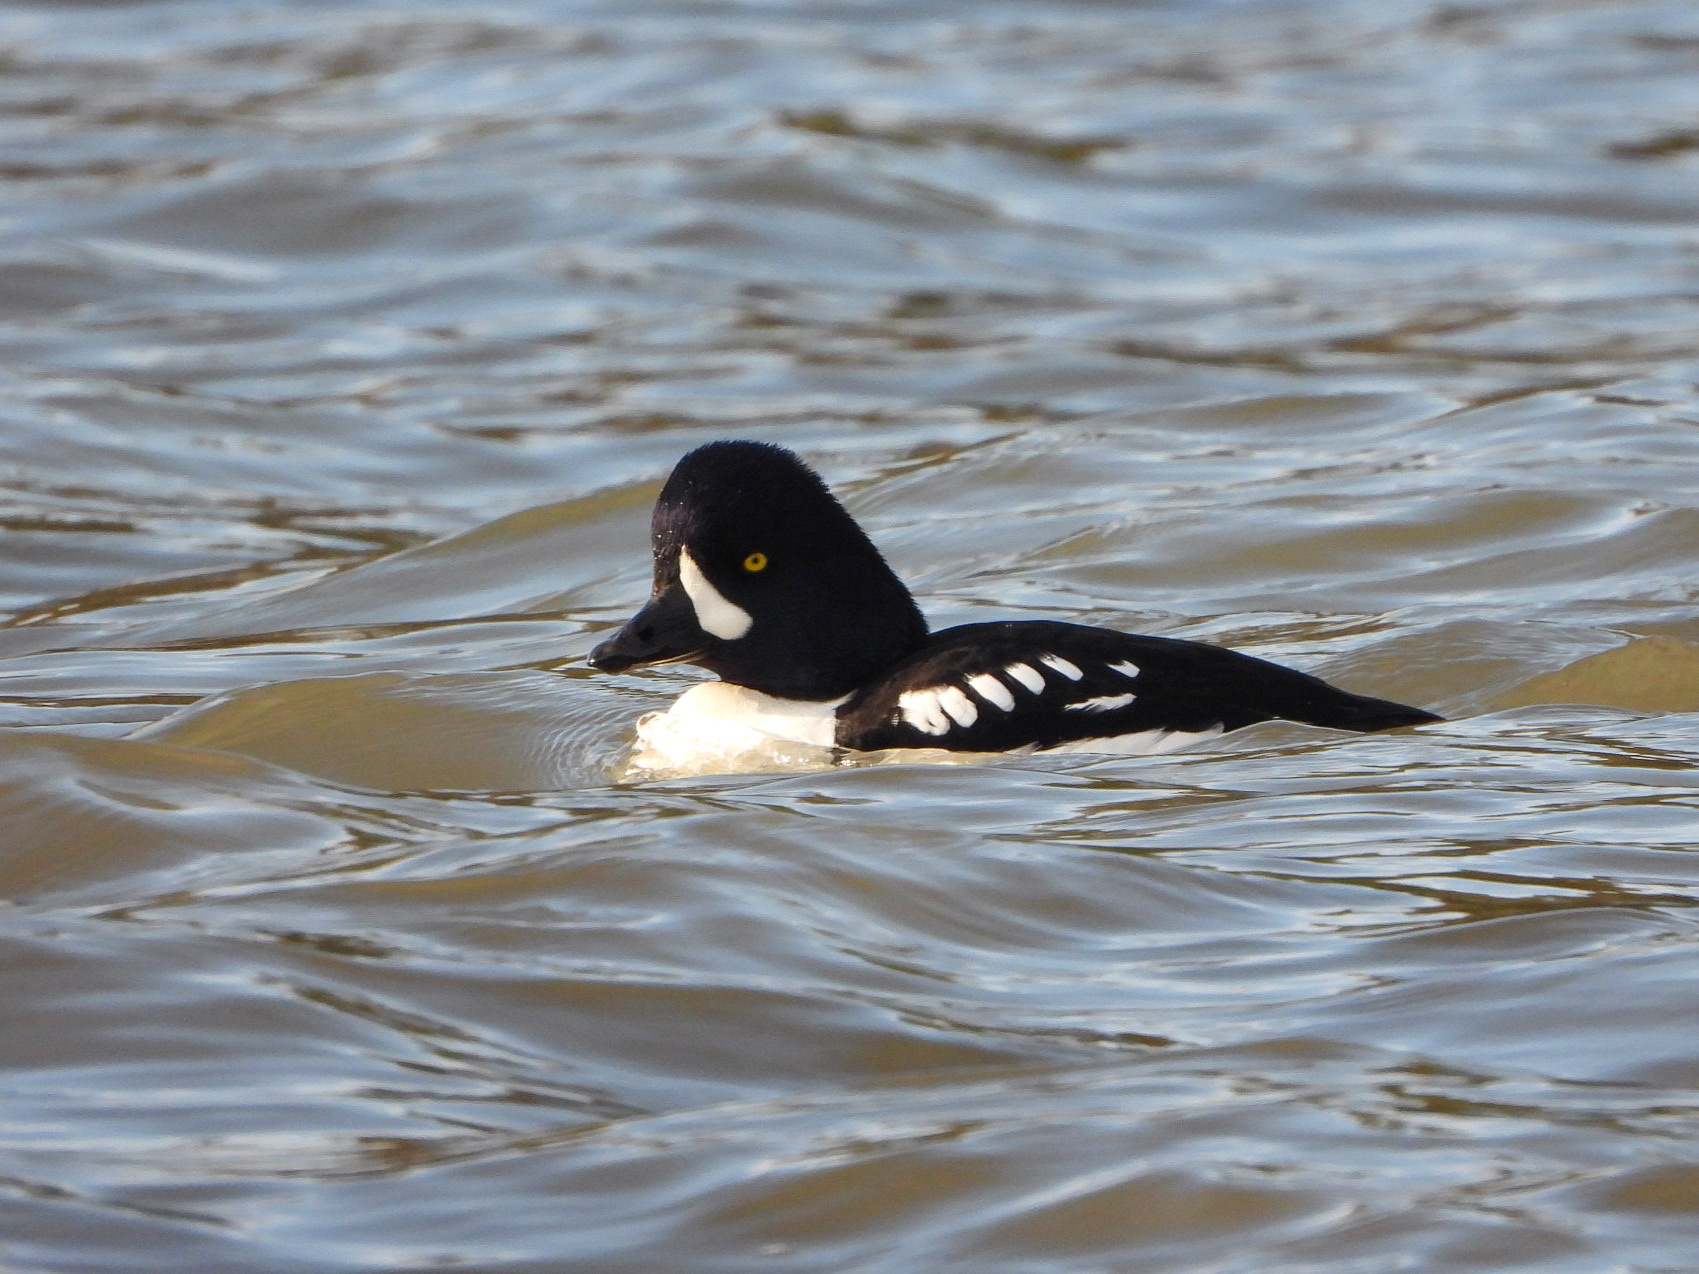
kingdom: Animalia
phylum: Chordata
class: Aves
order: Anseriformes
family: Anatidae
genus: Bucephala
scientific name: Bucephala islandica
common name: Barrow's goldeneye
